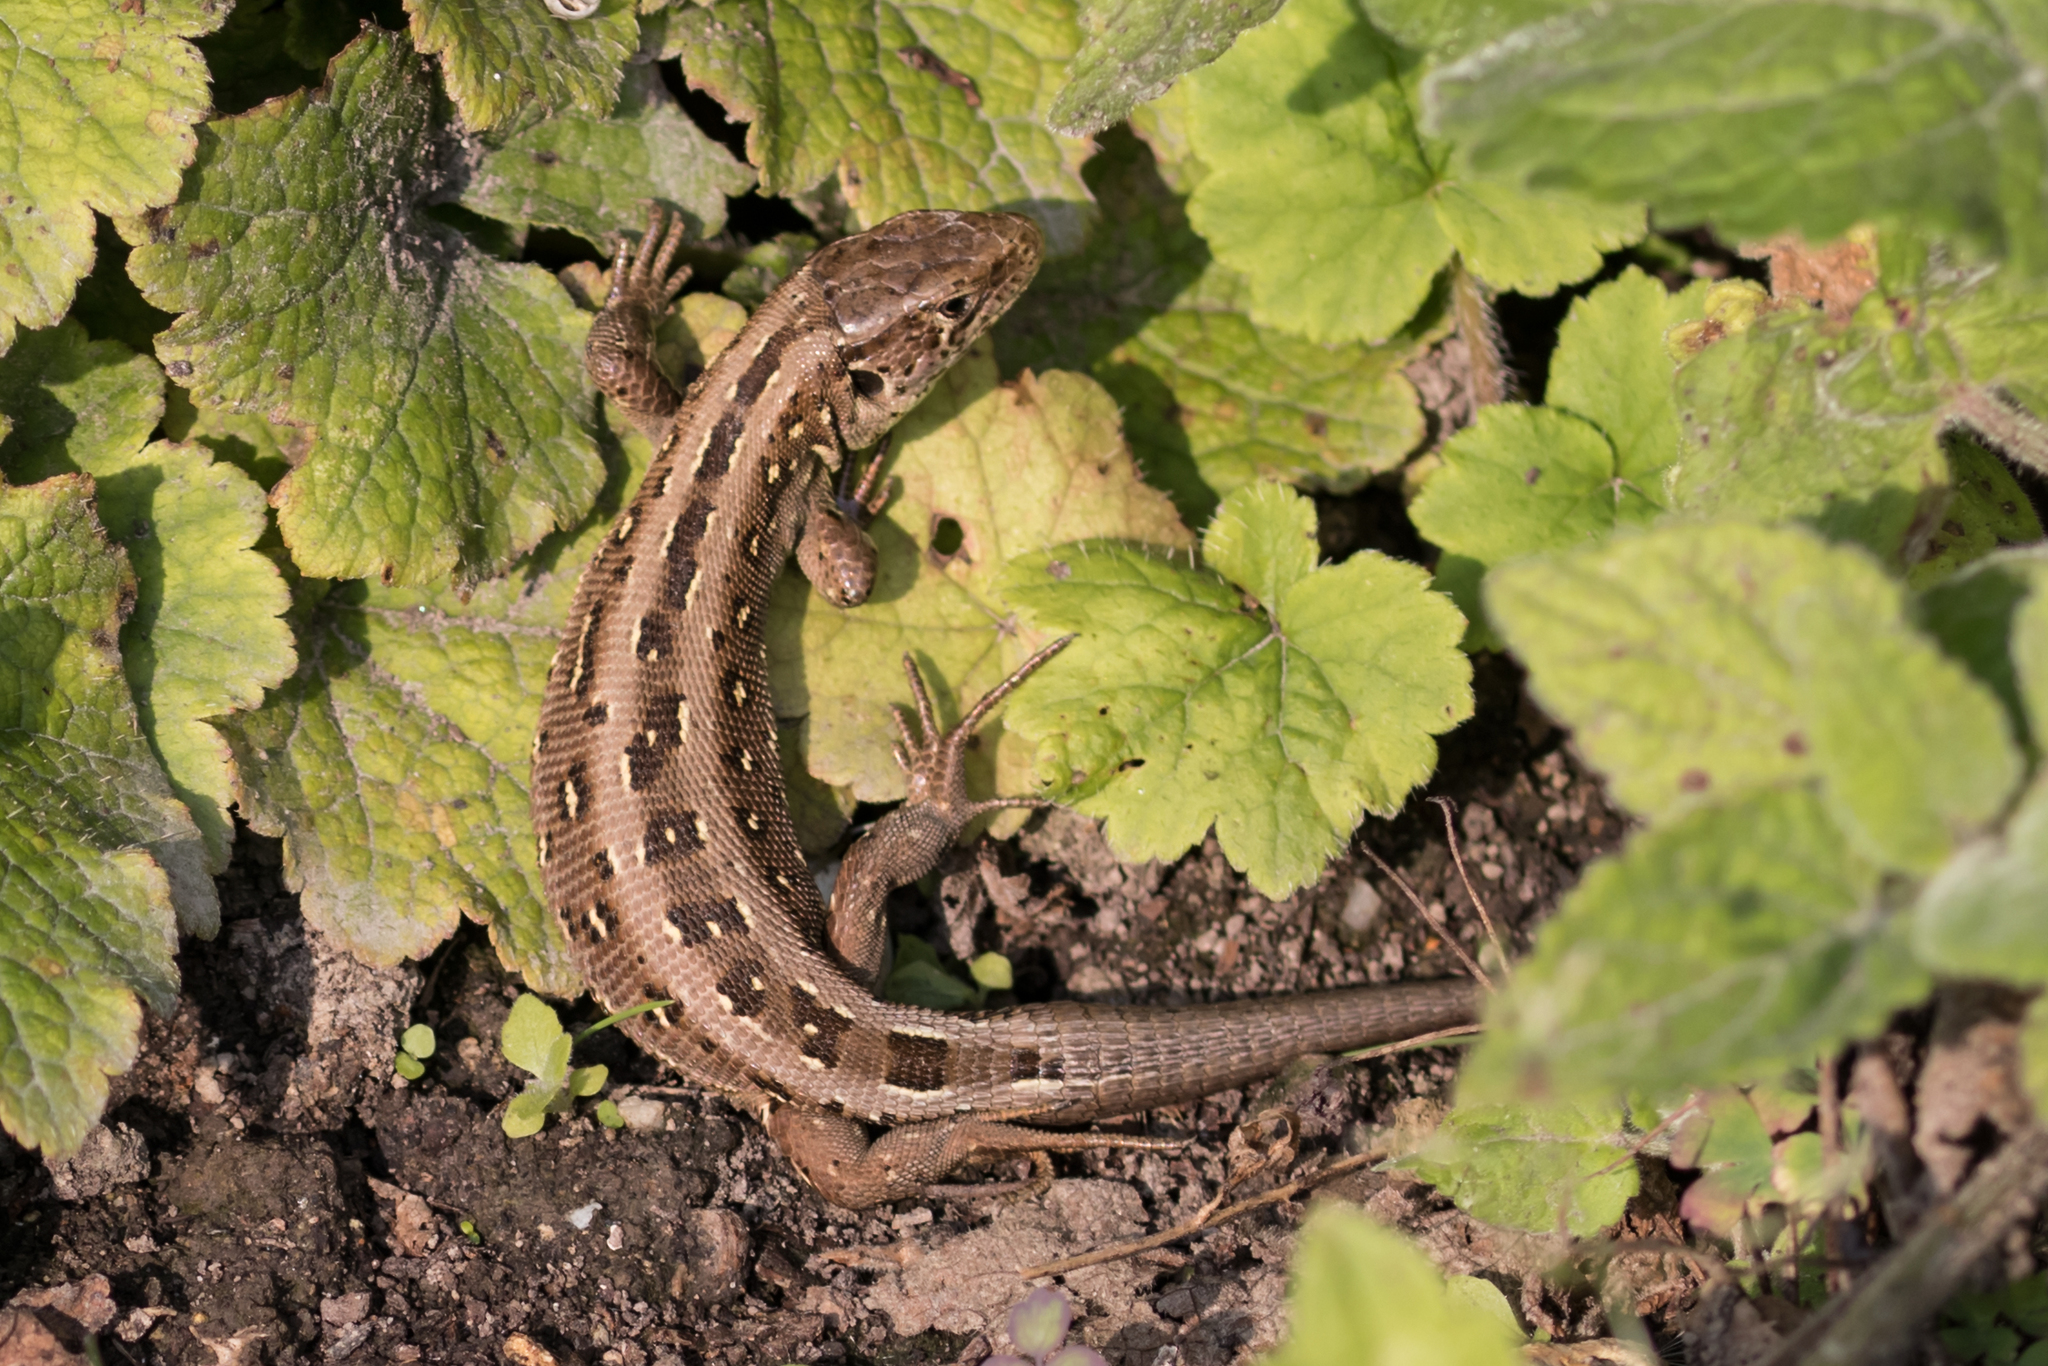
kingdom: Animalia
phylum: Chordata
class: Squamata
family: Lacertidae
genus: Lacerta
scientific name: Lacerta agilis
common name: Sand lizard
